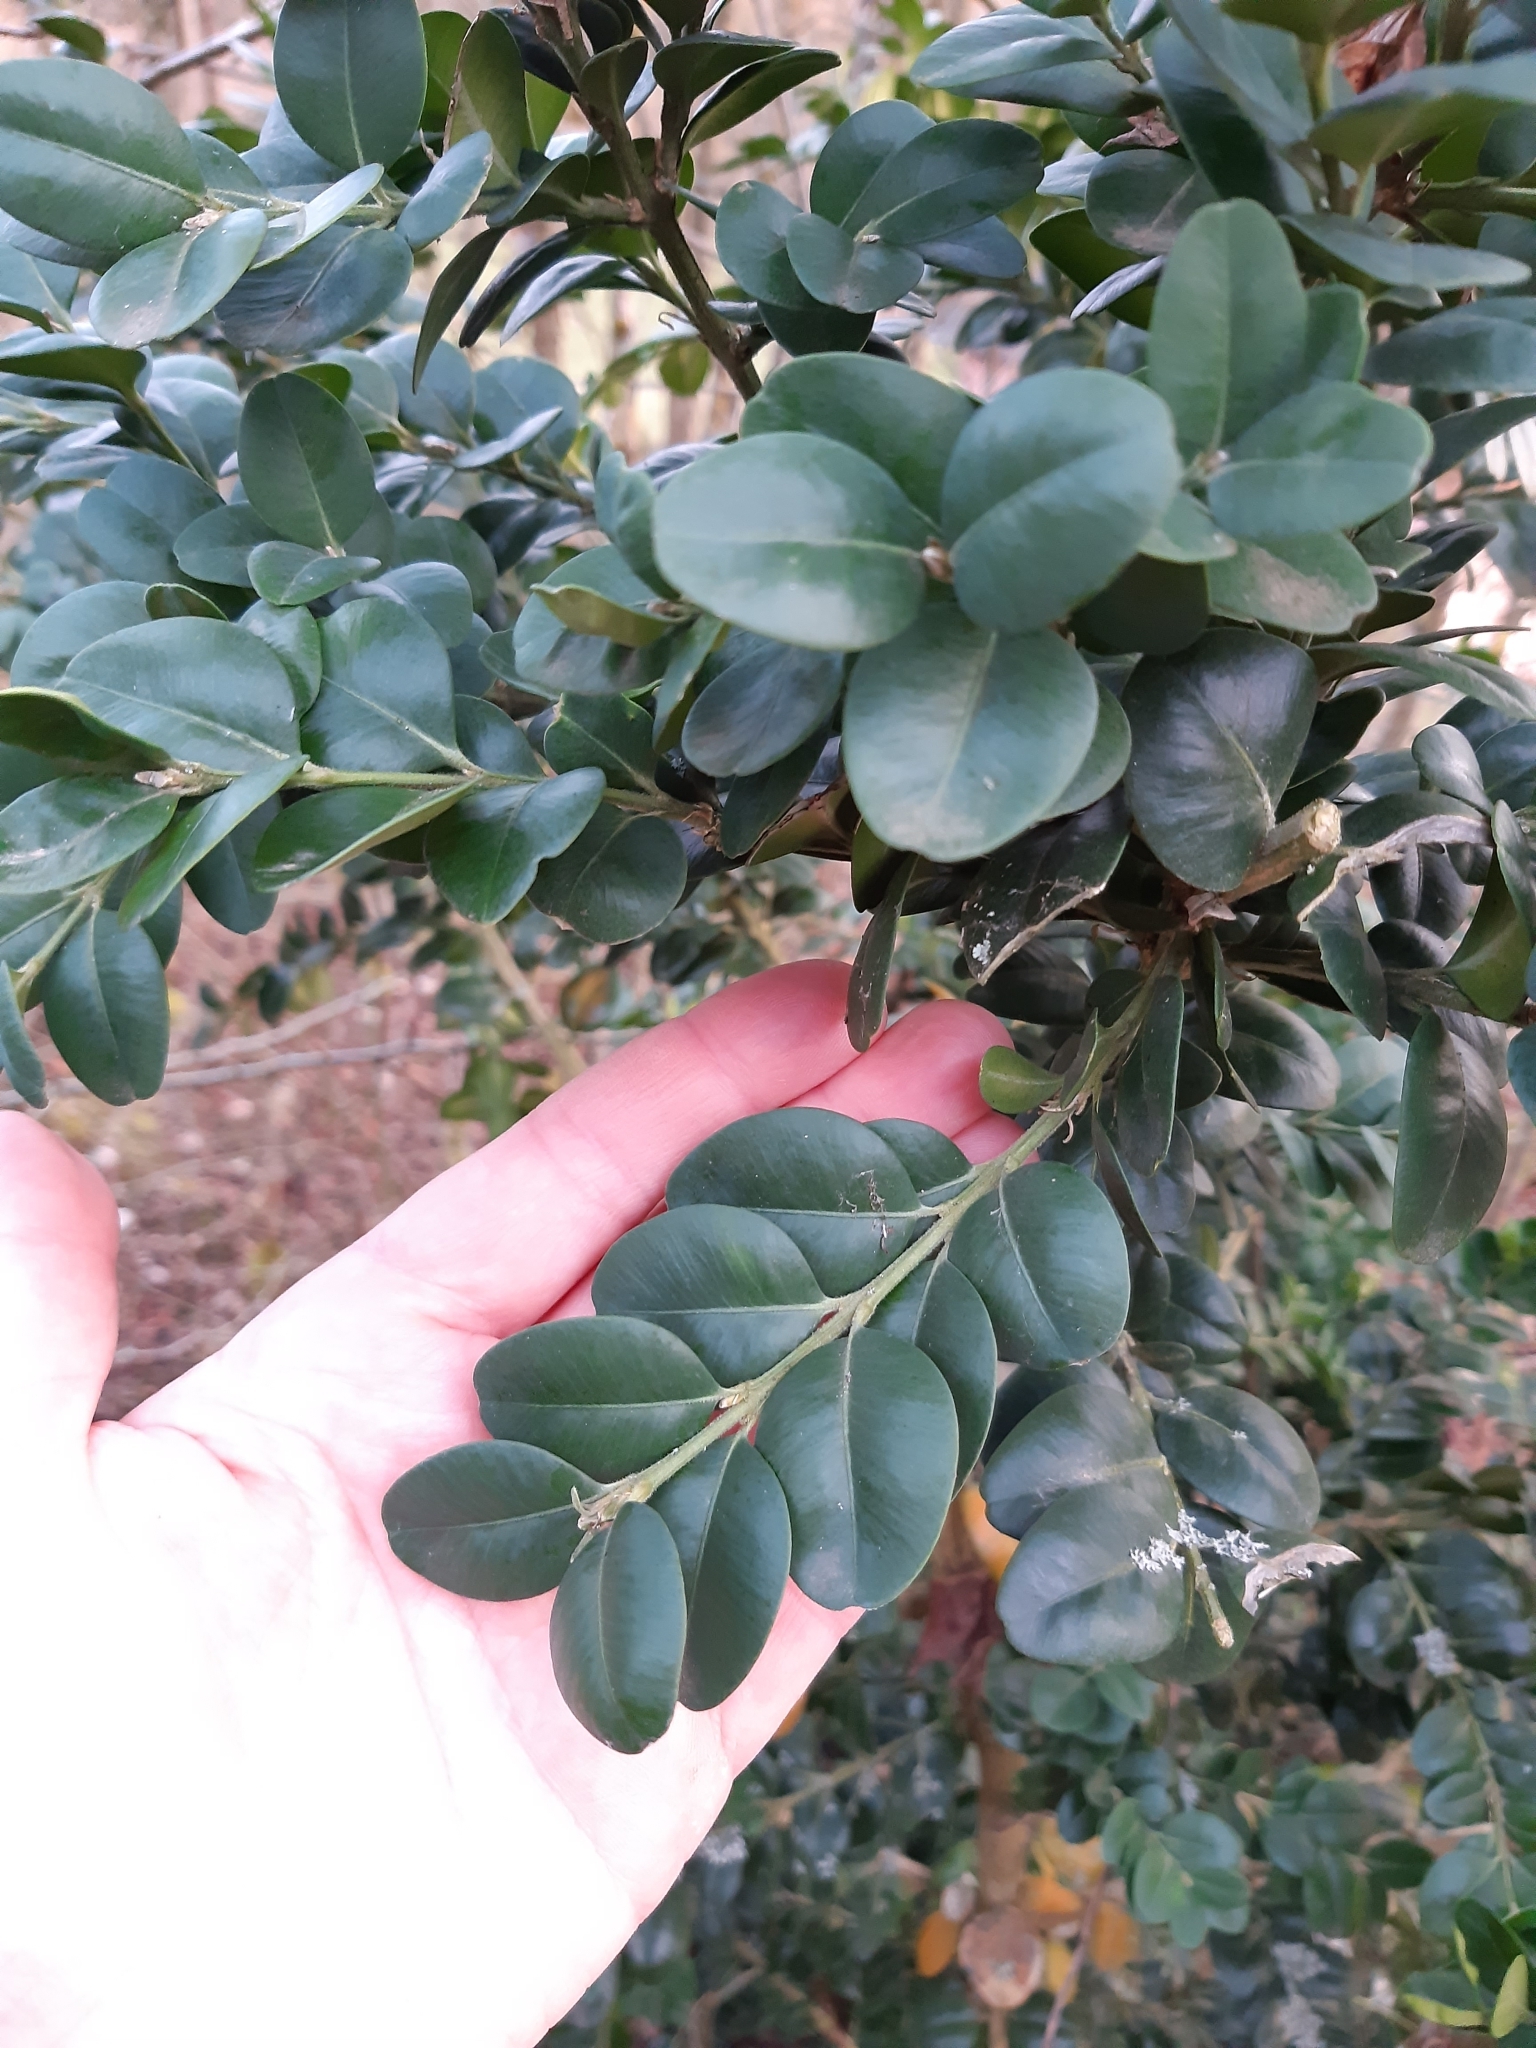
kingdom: Plantae
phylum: Tracheophyta
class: Magnoliopsida
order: Buxales
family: Buxaceae
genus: Buxus
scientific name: Buxus sempervirens
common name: Box
